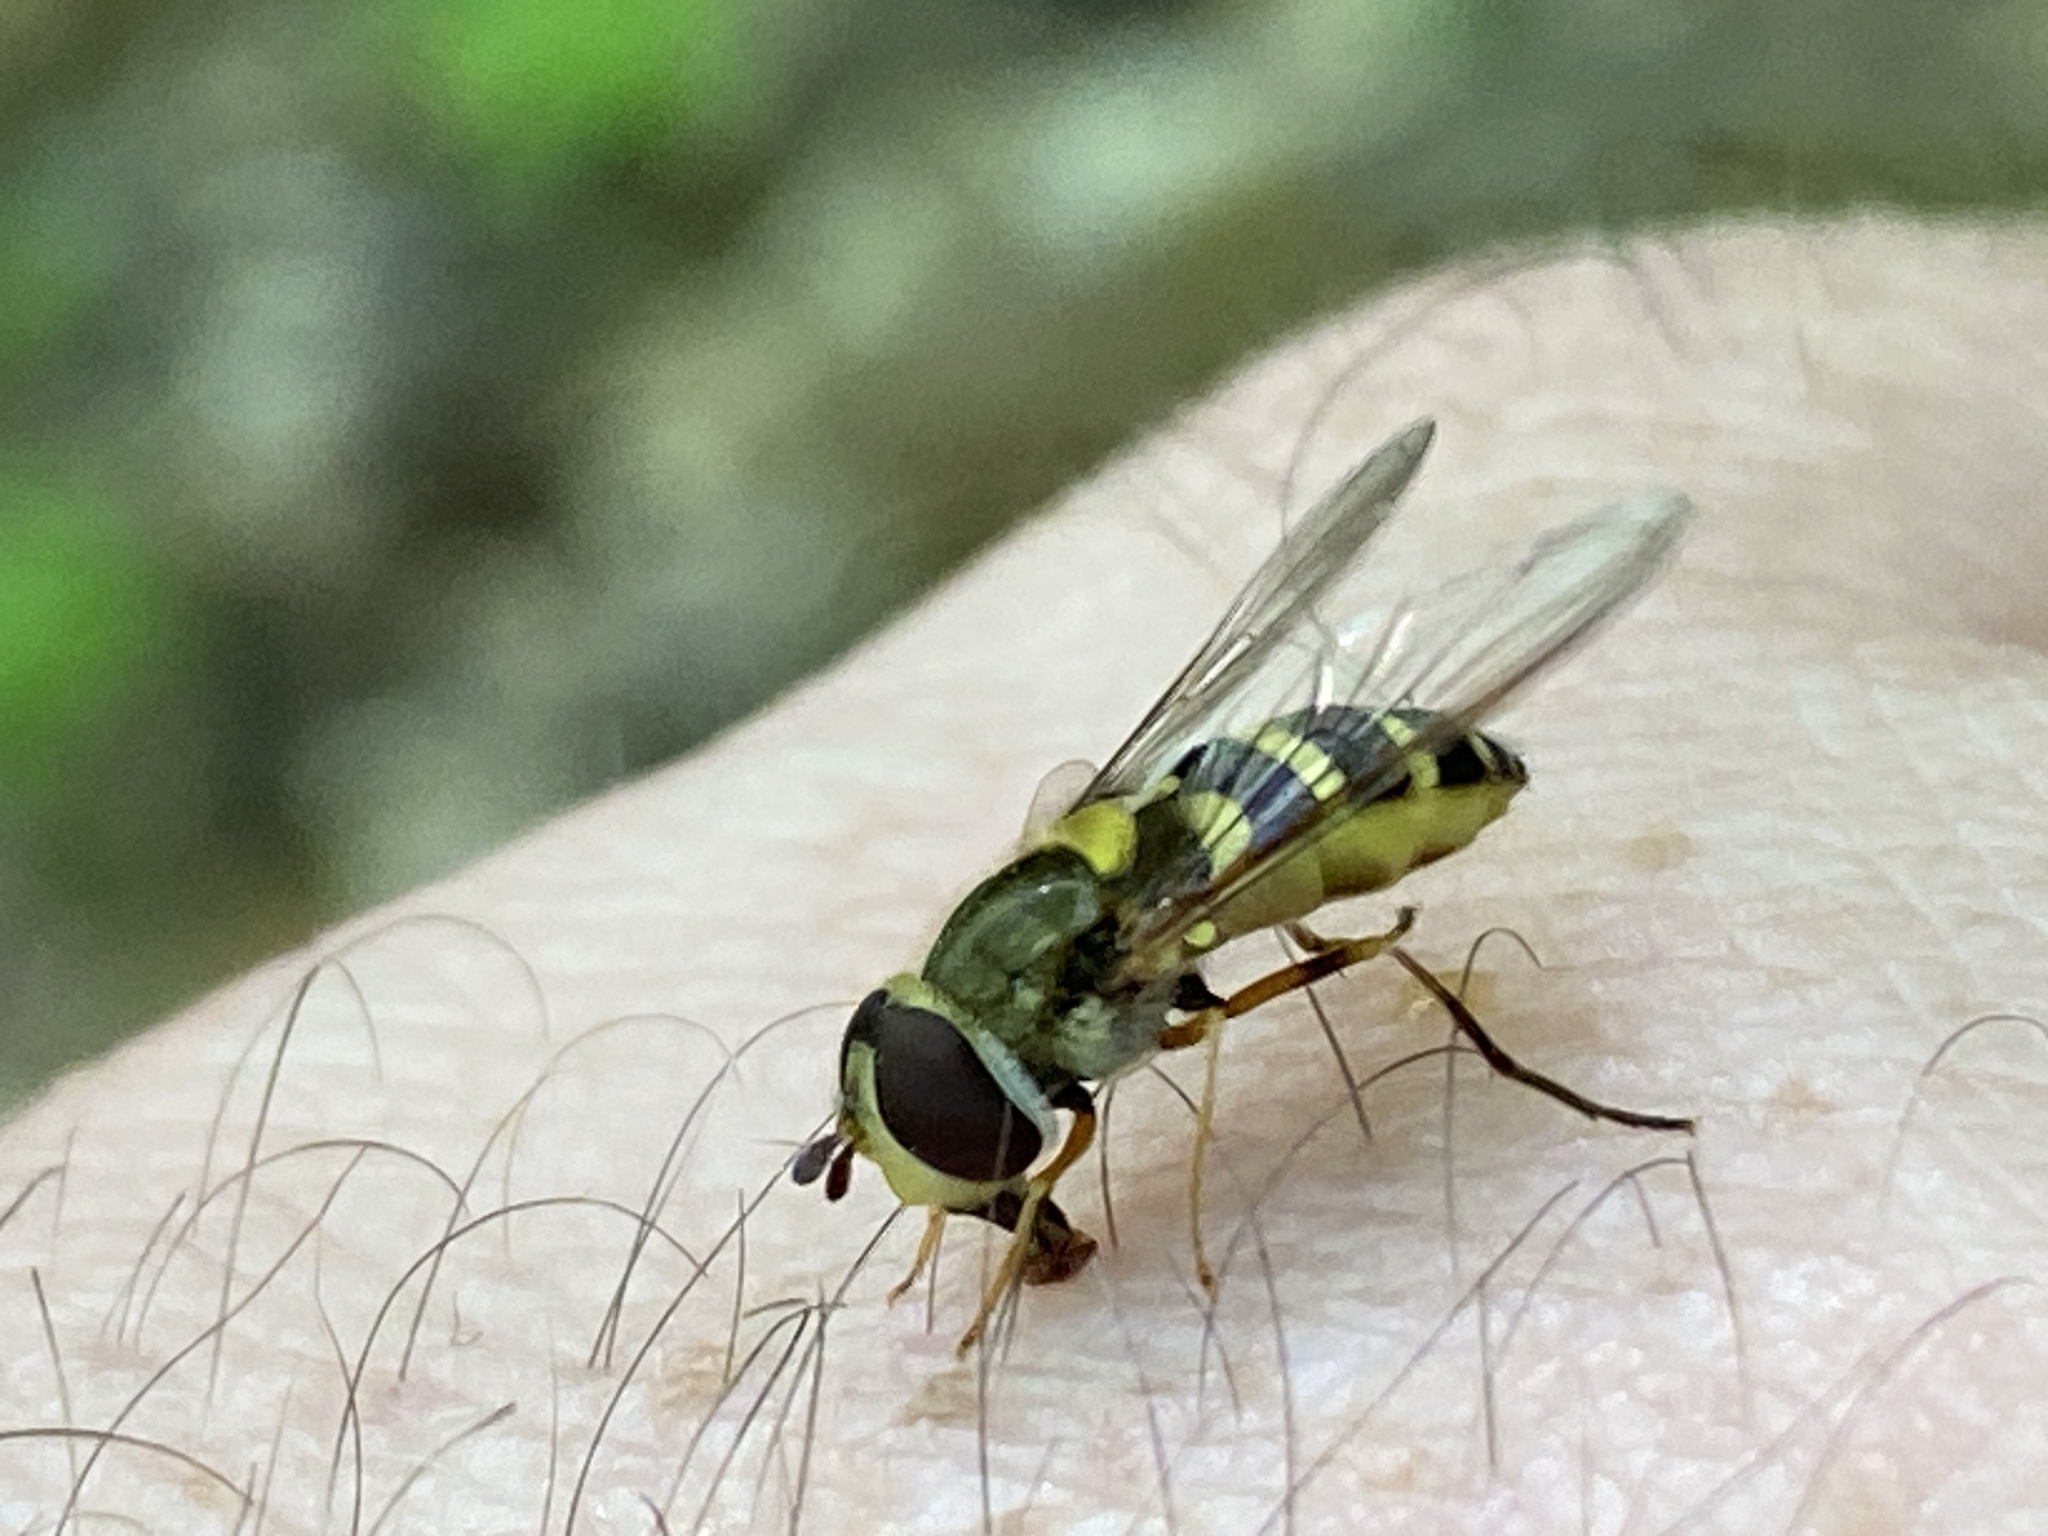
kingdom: Animalia
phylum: Arthropoda
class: Insecta
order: Diptera
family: Syrphidae
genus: Syrphus
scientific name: Syrphus rectus
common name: Yellow-legged flower fly
